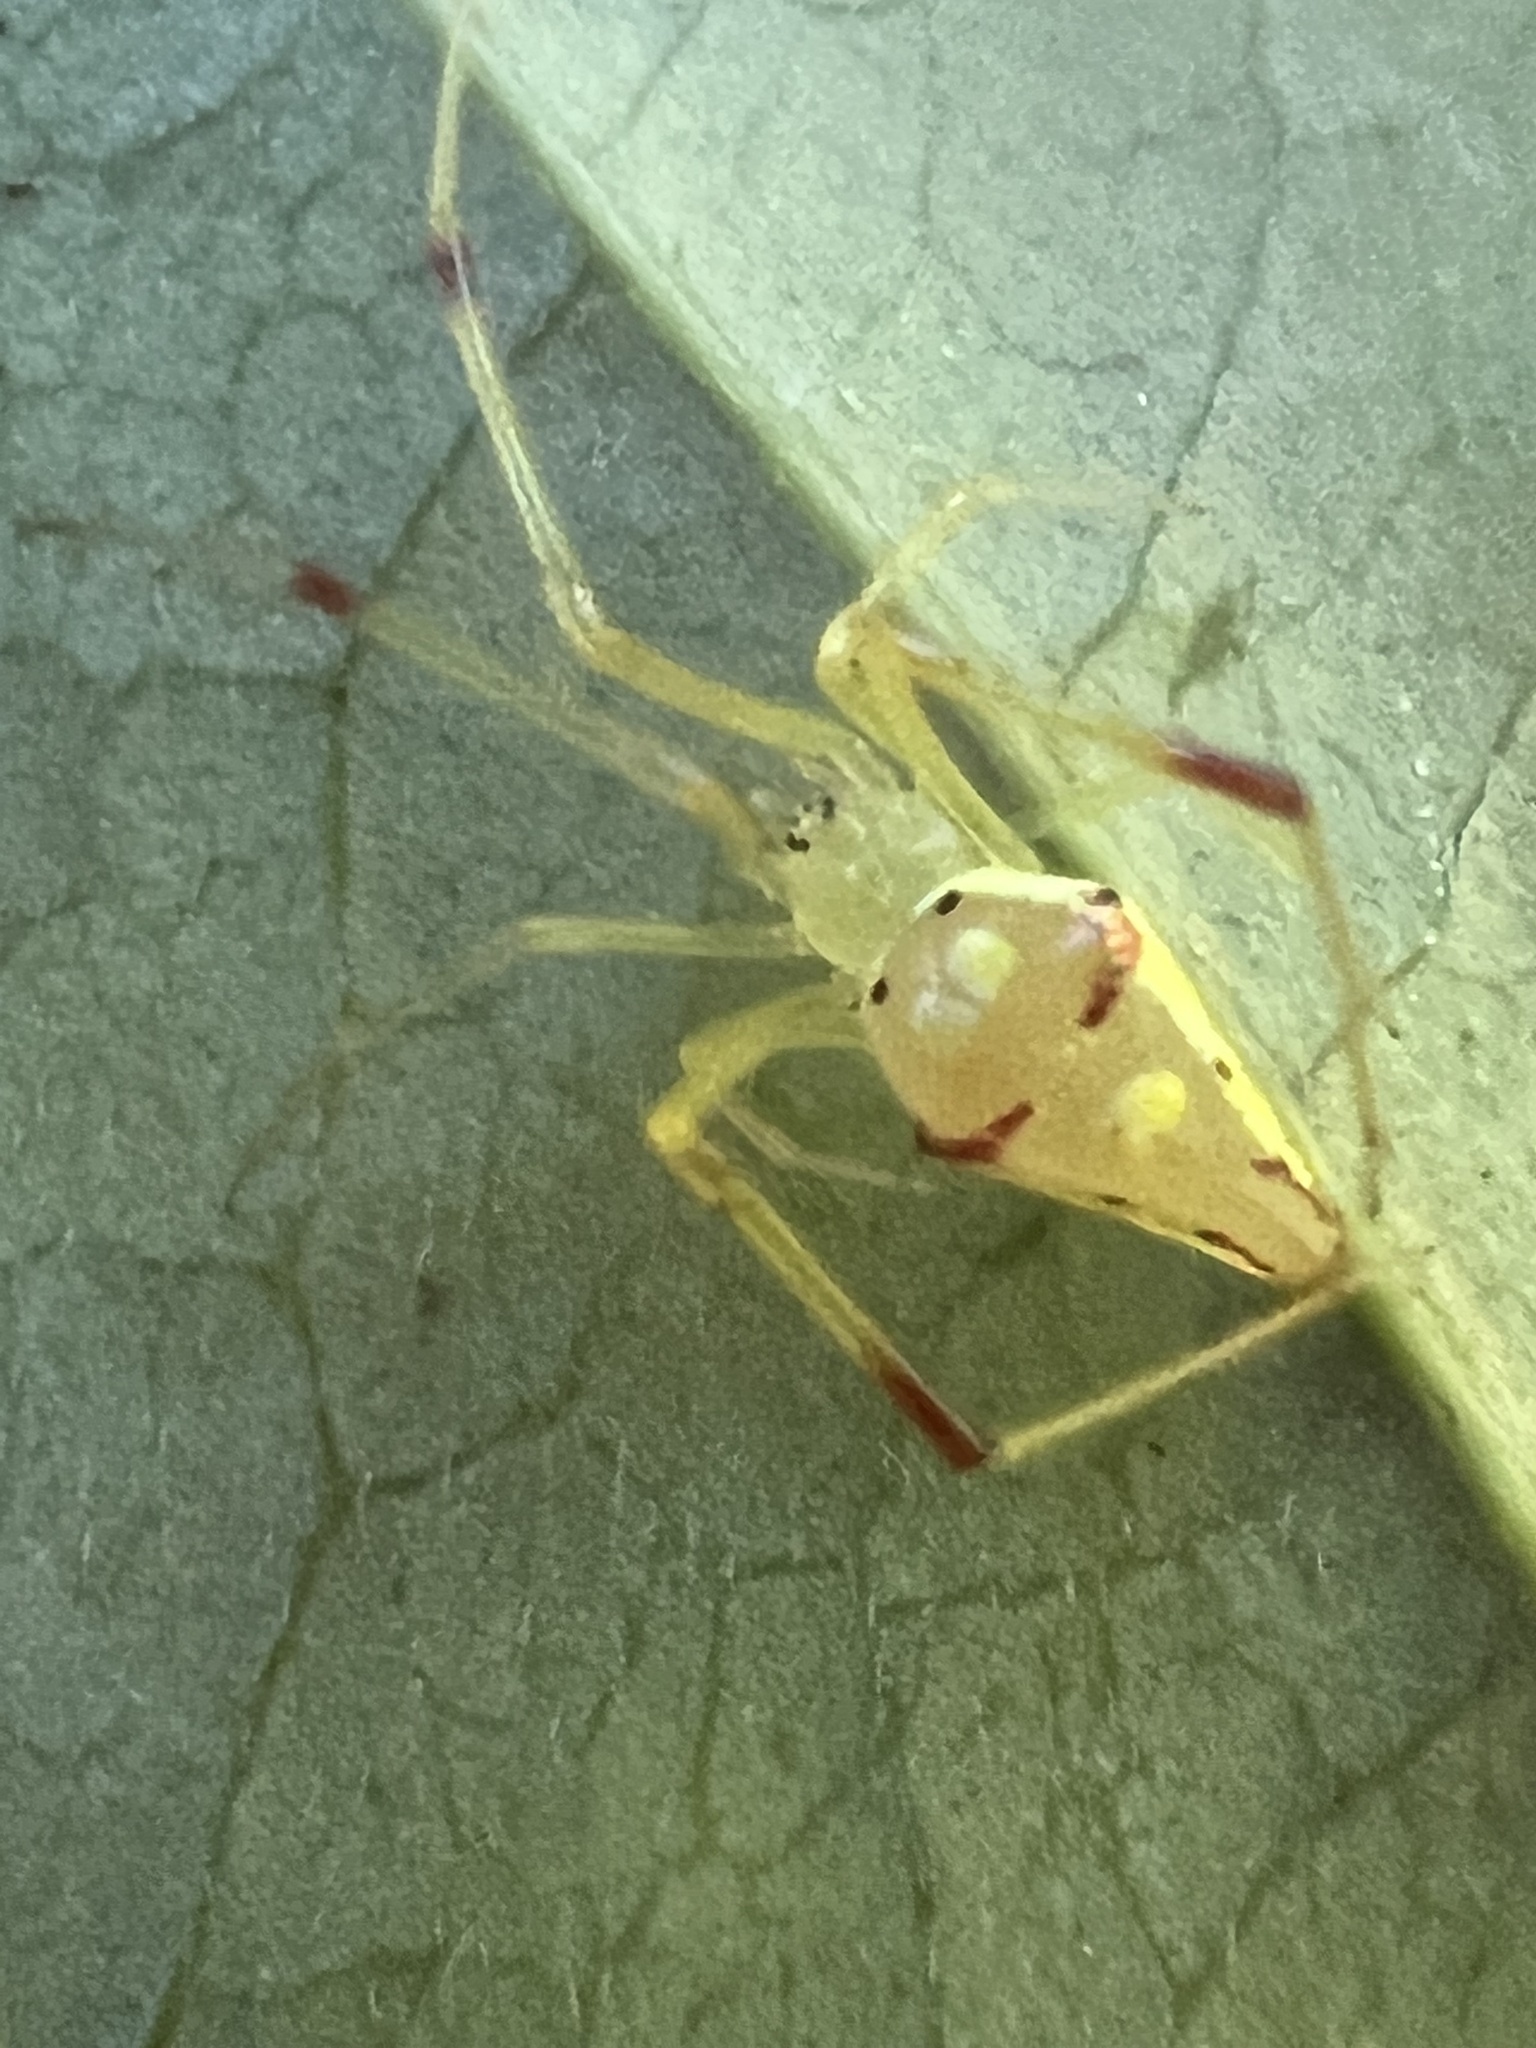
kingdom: Animalia
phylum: Arthropoda
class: Arachnida
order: Araneae
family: Theridiidae
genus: Spintharus
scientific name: Spintharus flavidus
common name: Cobweb spiders
